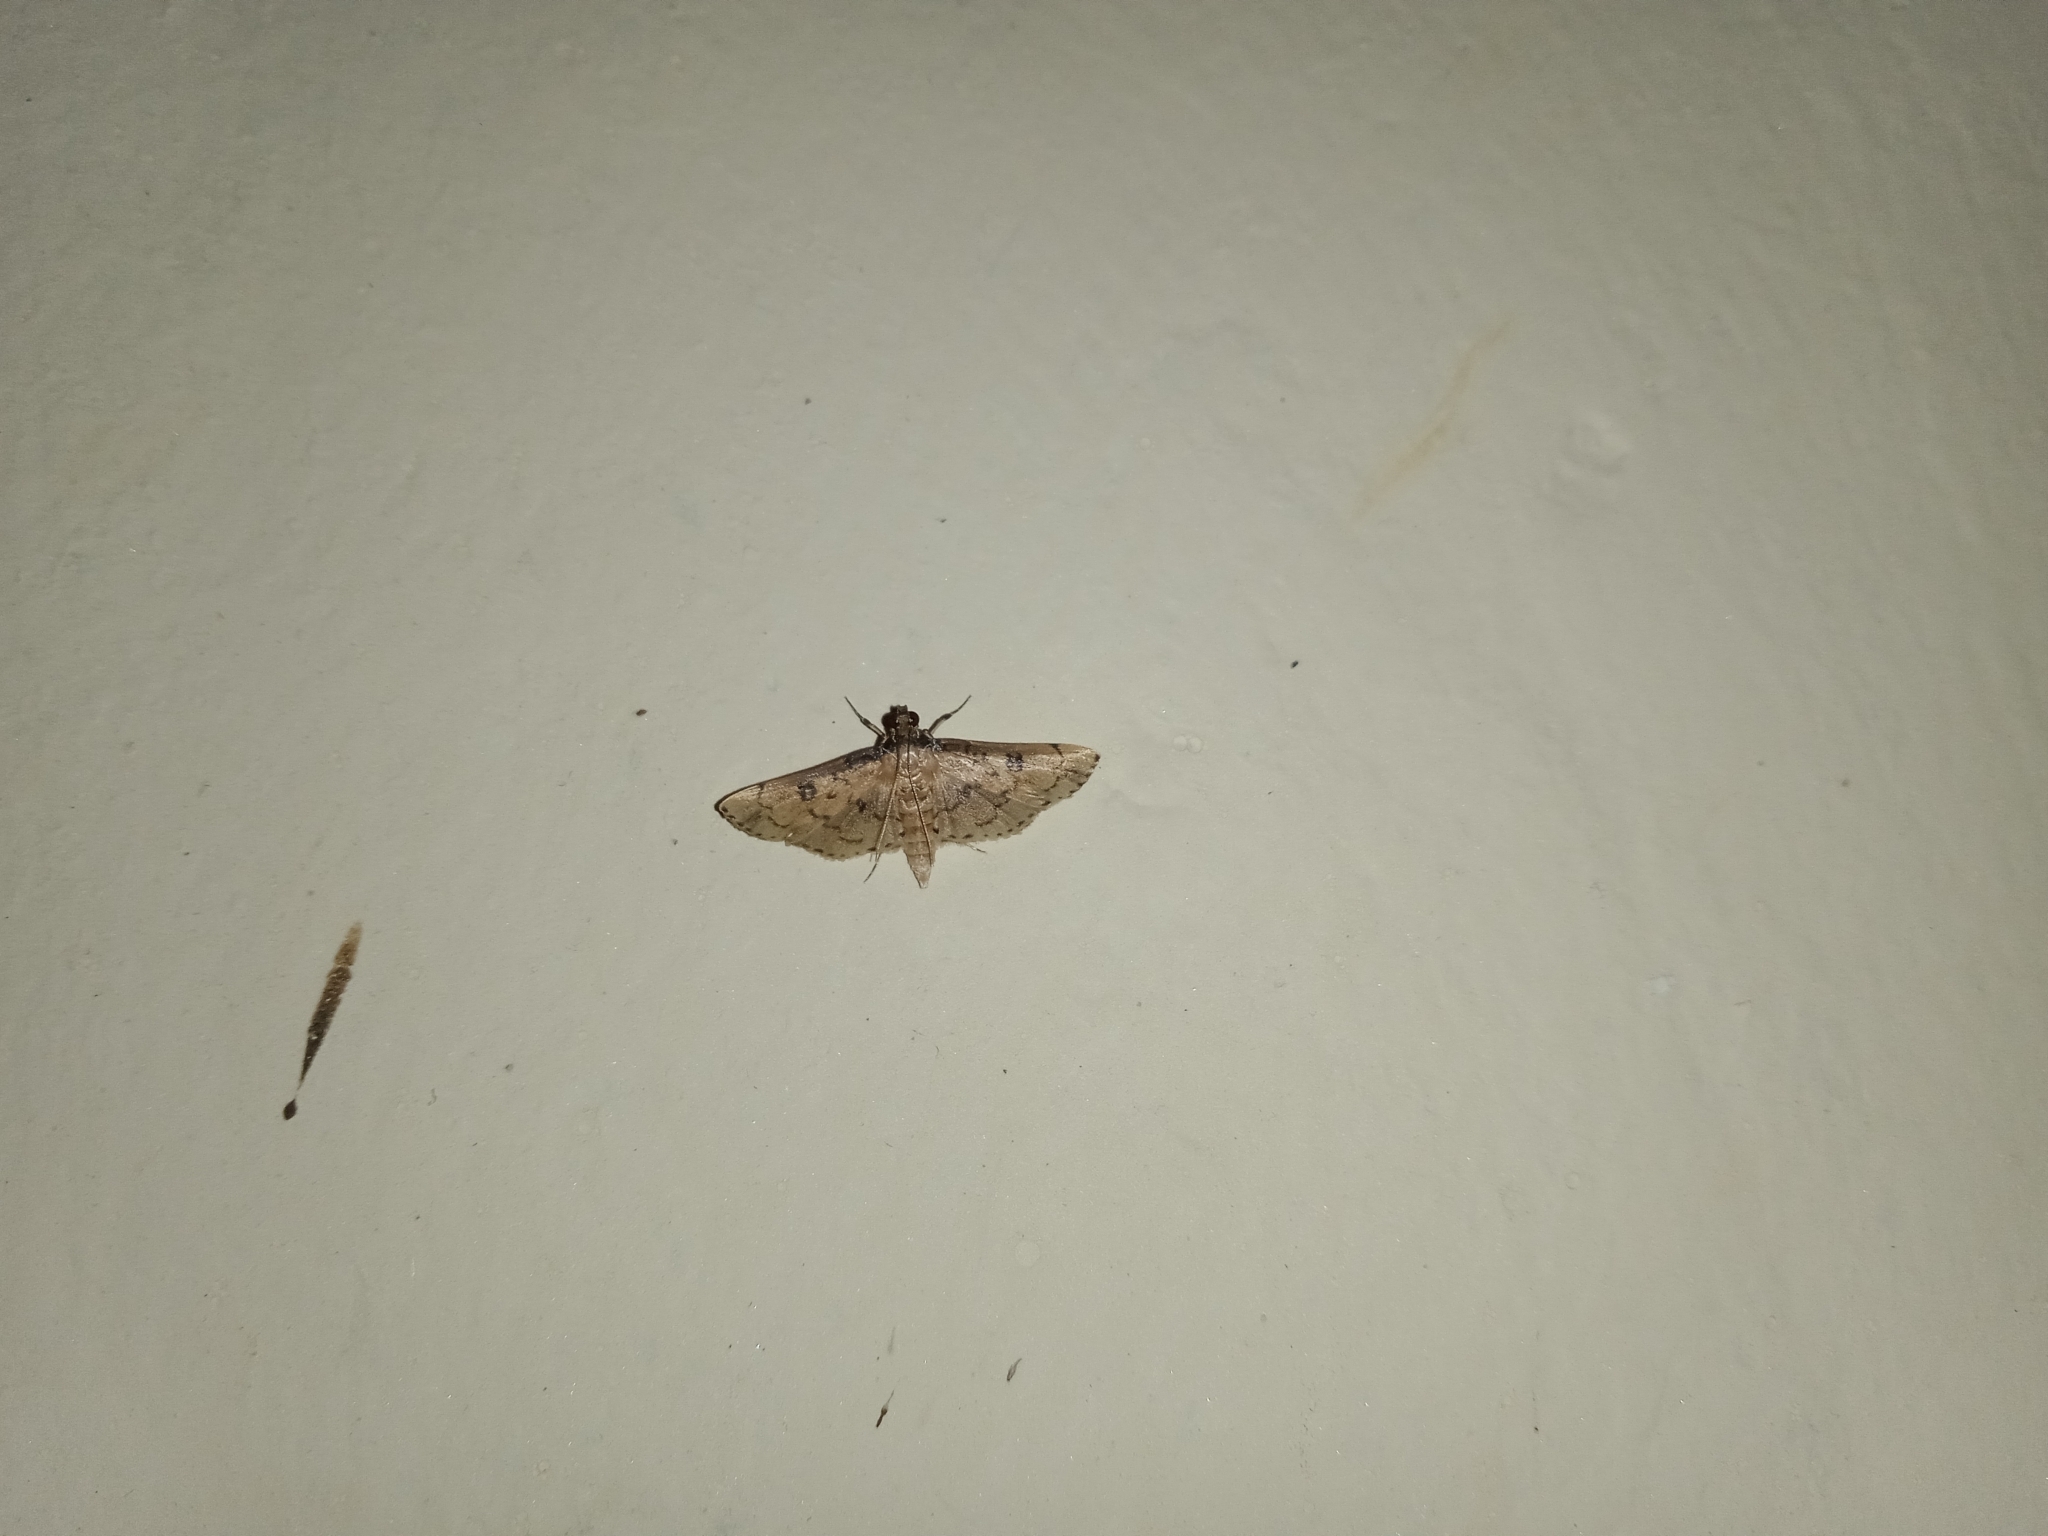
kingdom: Animalia
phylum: Arthropoda
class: Insecta
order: Lepidoptera
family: Crambidae
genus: Nacoleia
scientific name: Nacoleia charesalis
